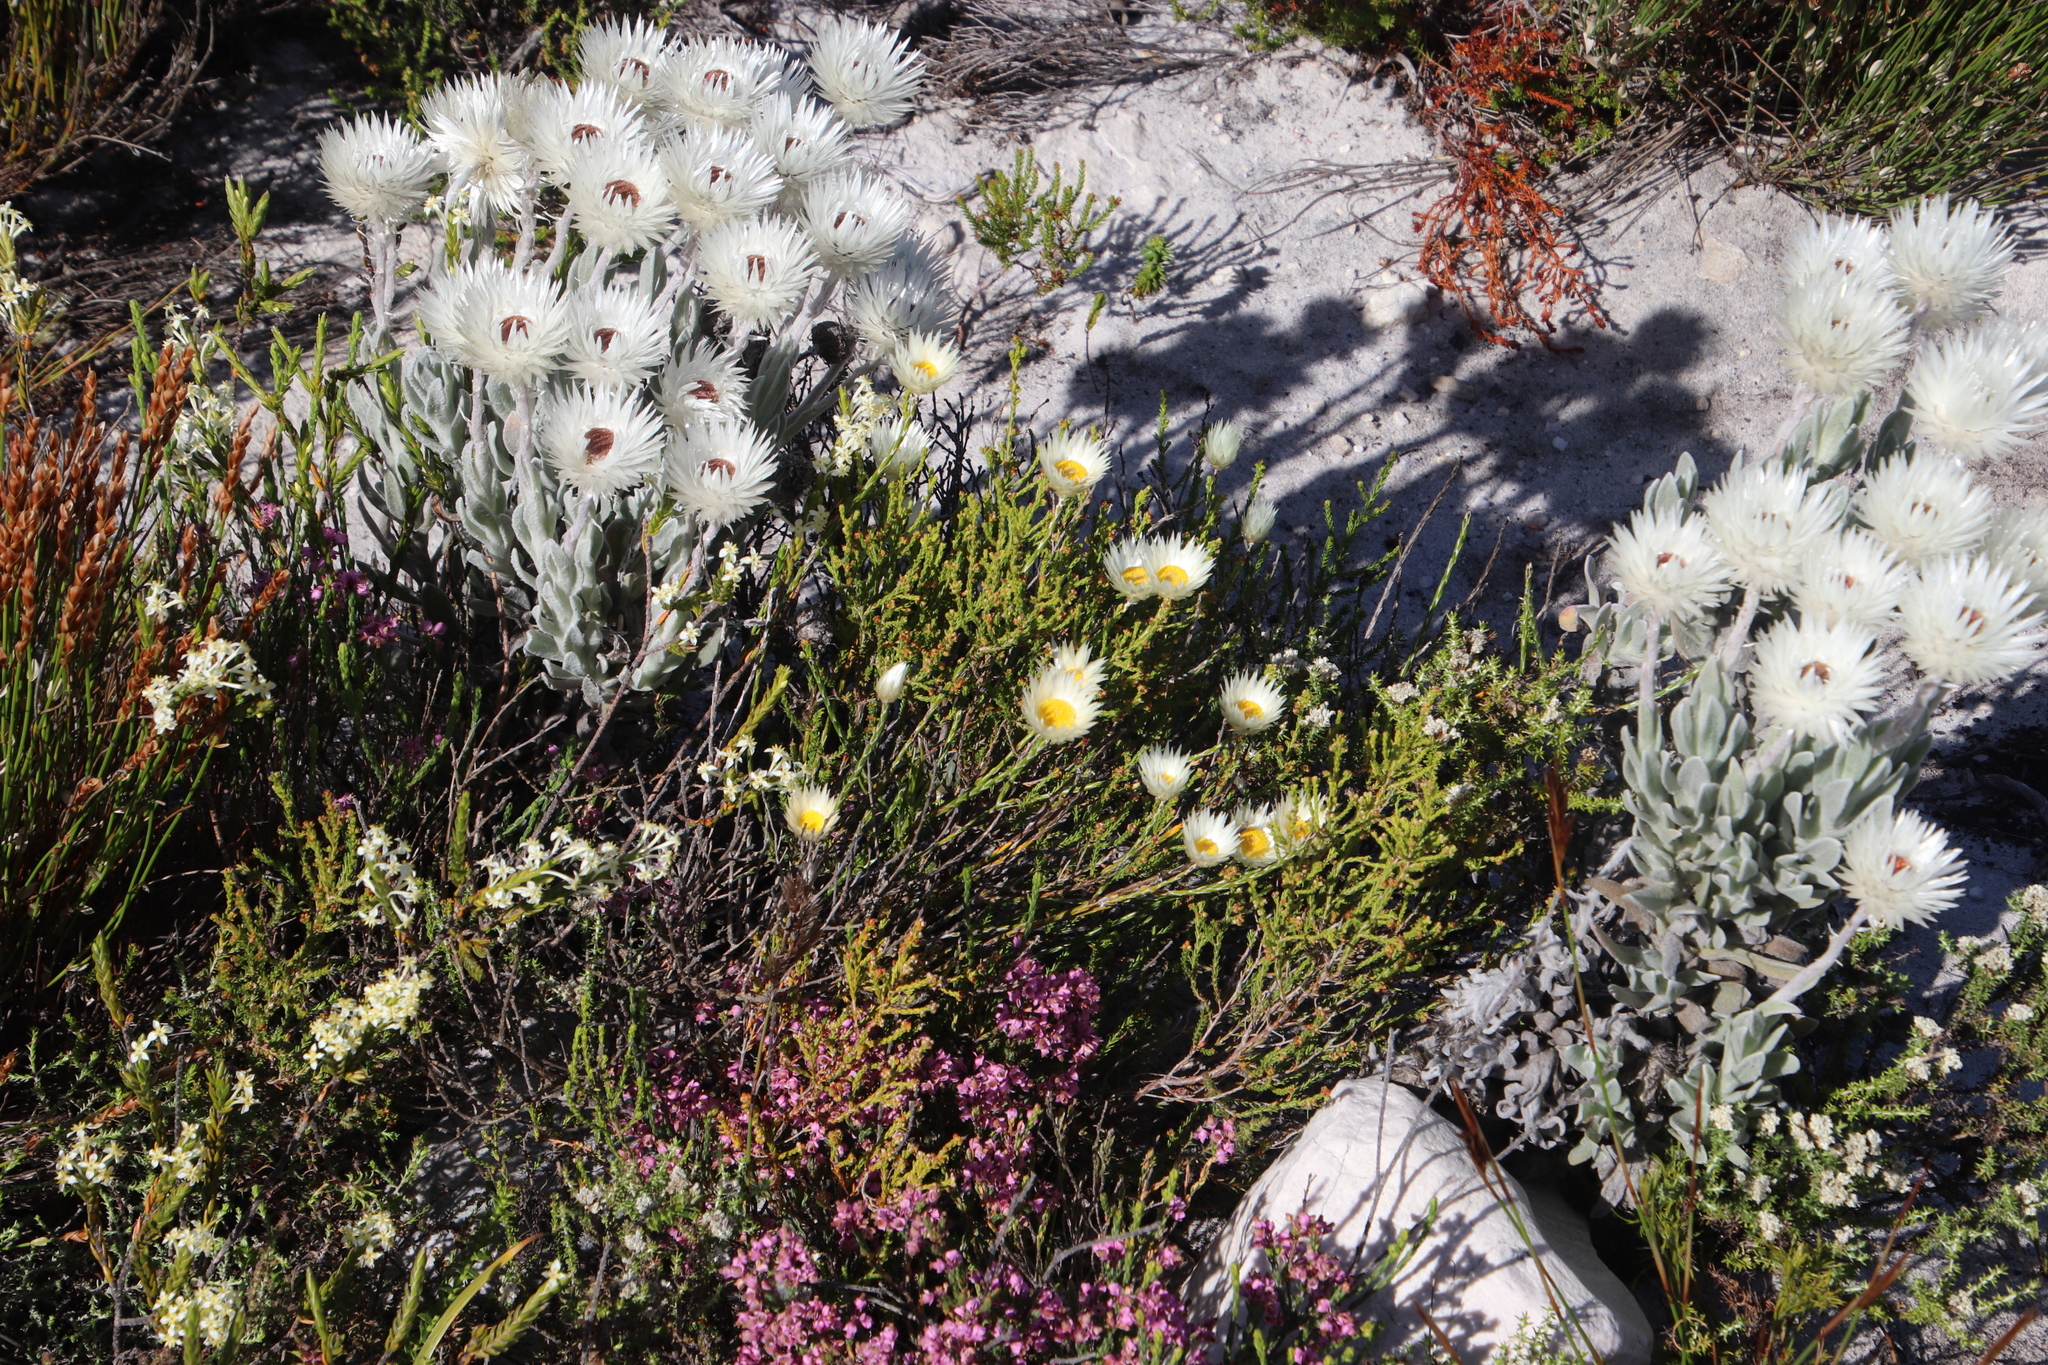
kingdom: Plantae
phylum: Tracheophyta
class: Magnoliopsida
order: Asterales
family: Asteraceae
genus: Edmondia
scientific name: Edmondia sesamoides
